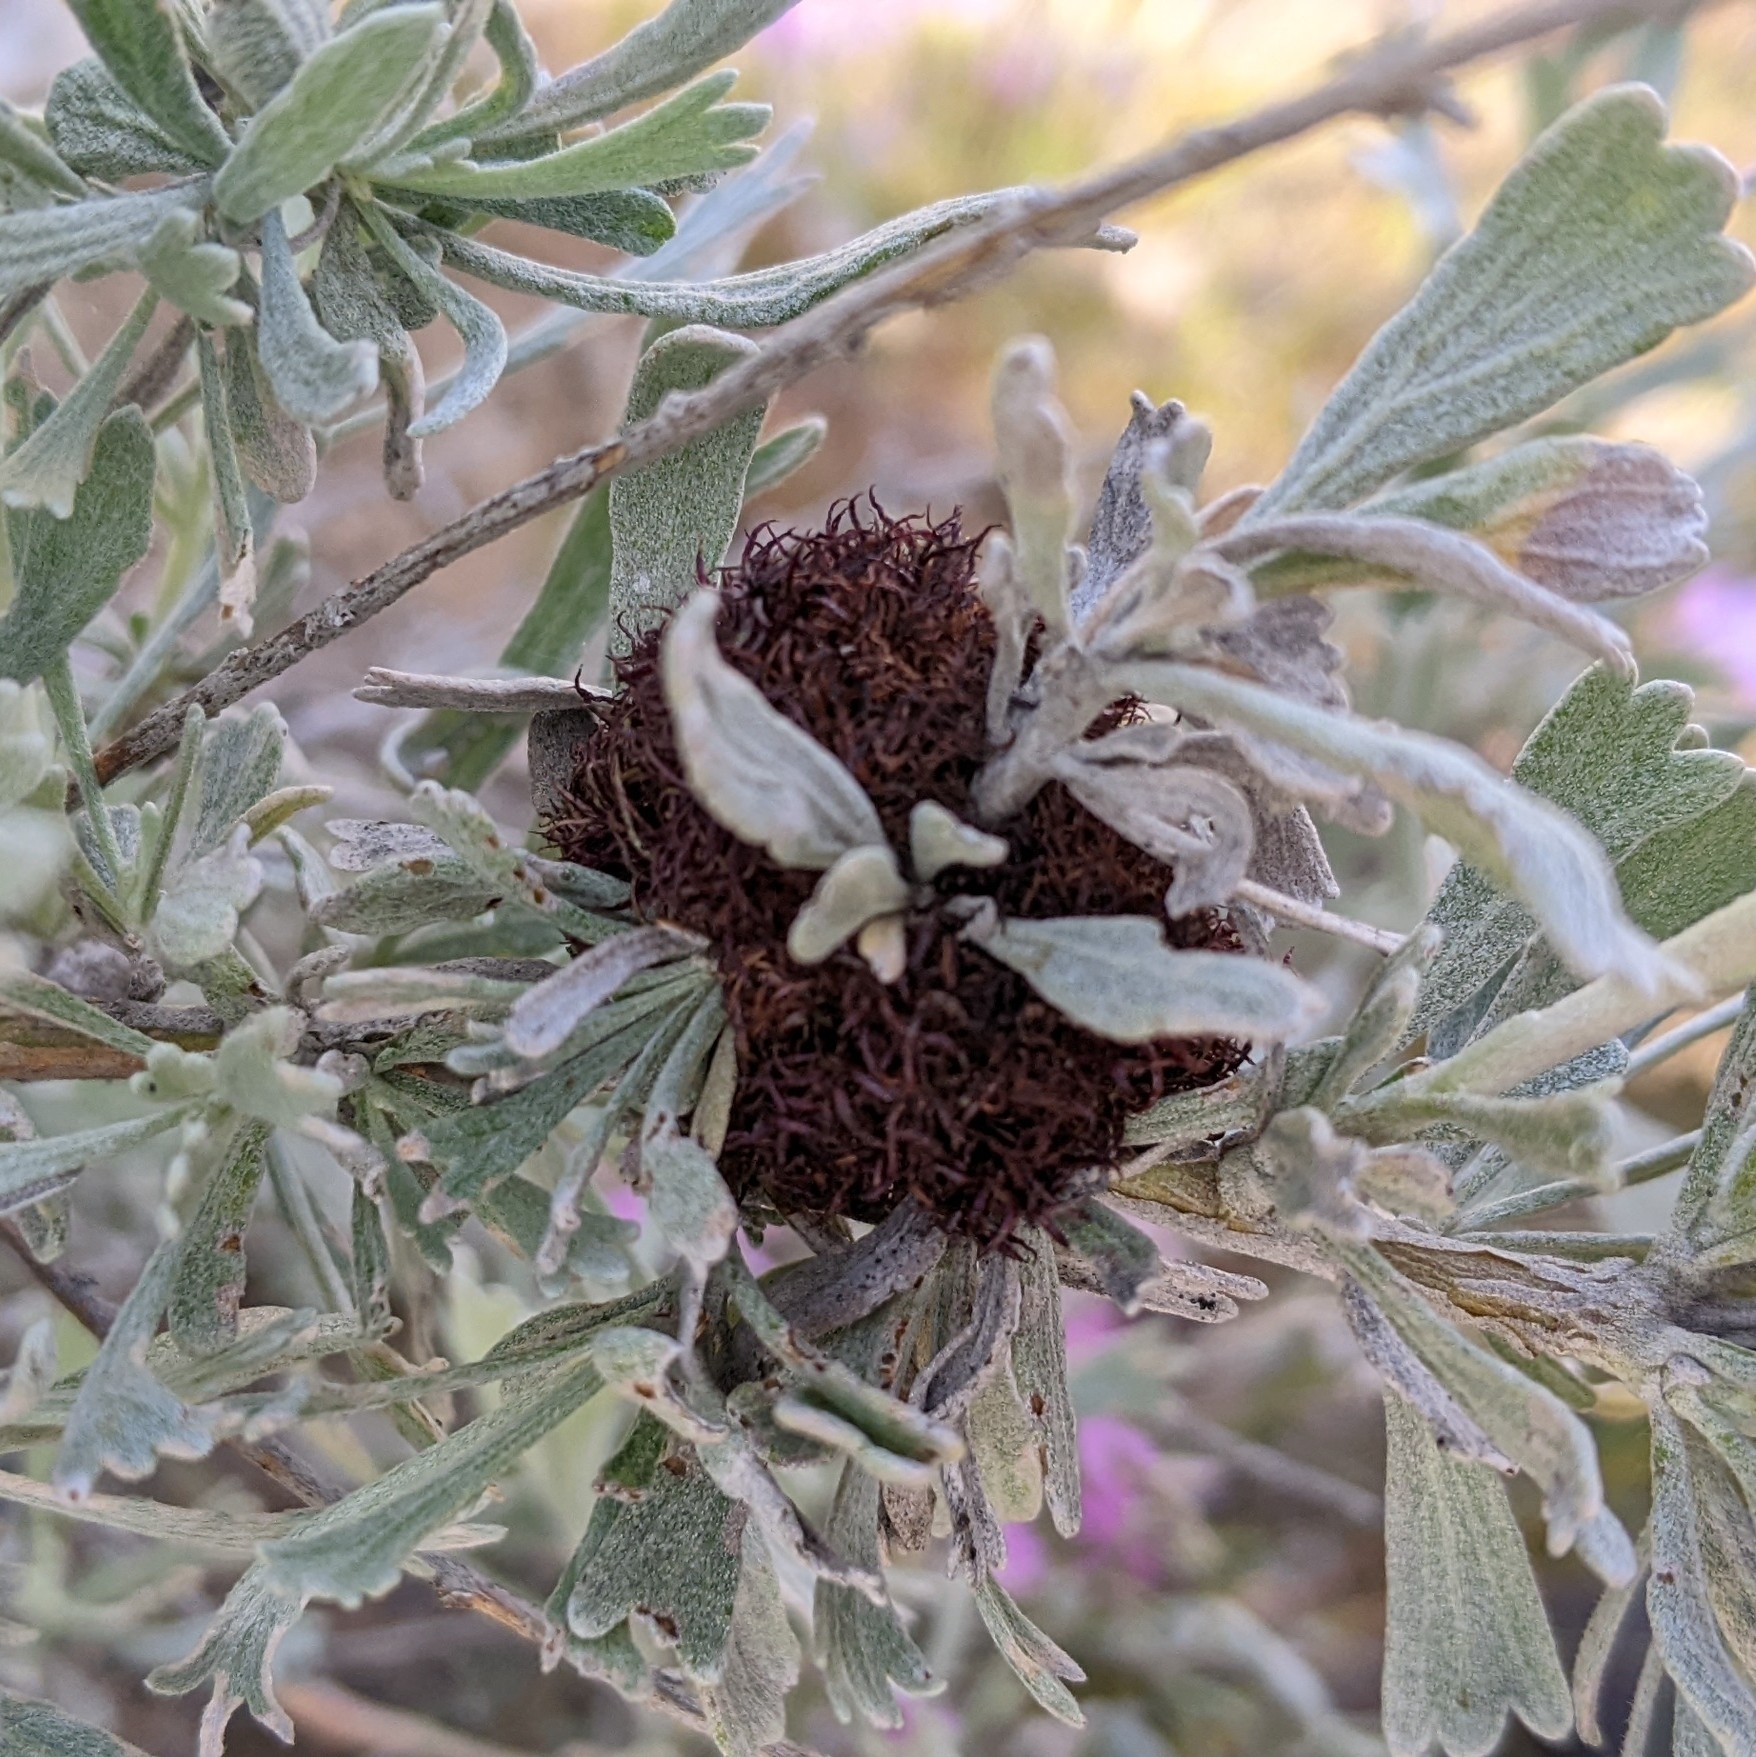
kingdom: Animalia
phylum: Arthropoda
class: Insecta
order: Diptera
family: Cecidomyiidae
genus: Rhopalomyia
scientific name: Rhopalomyia medusa
